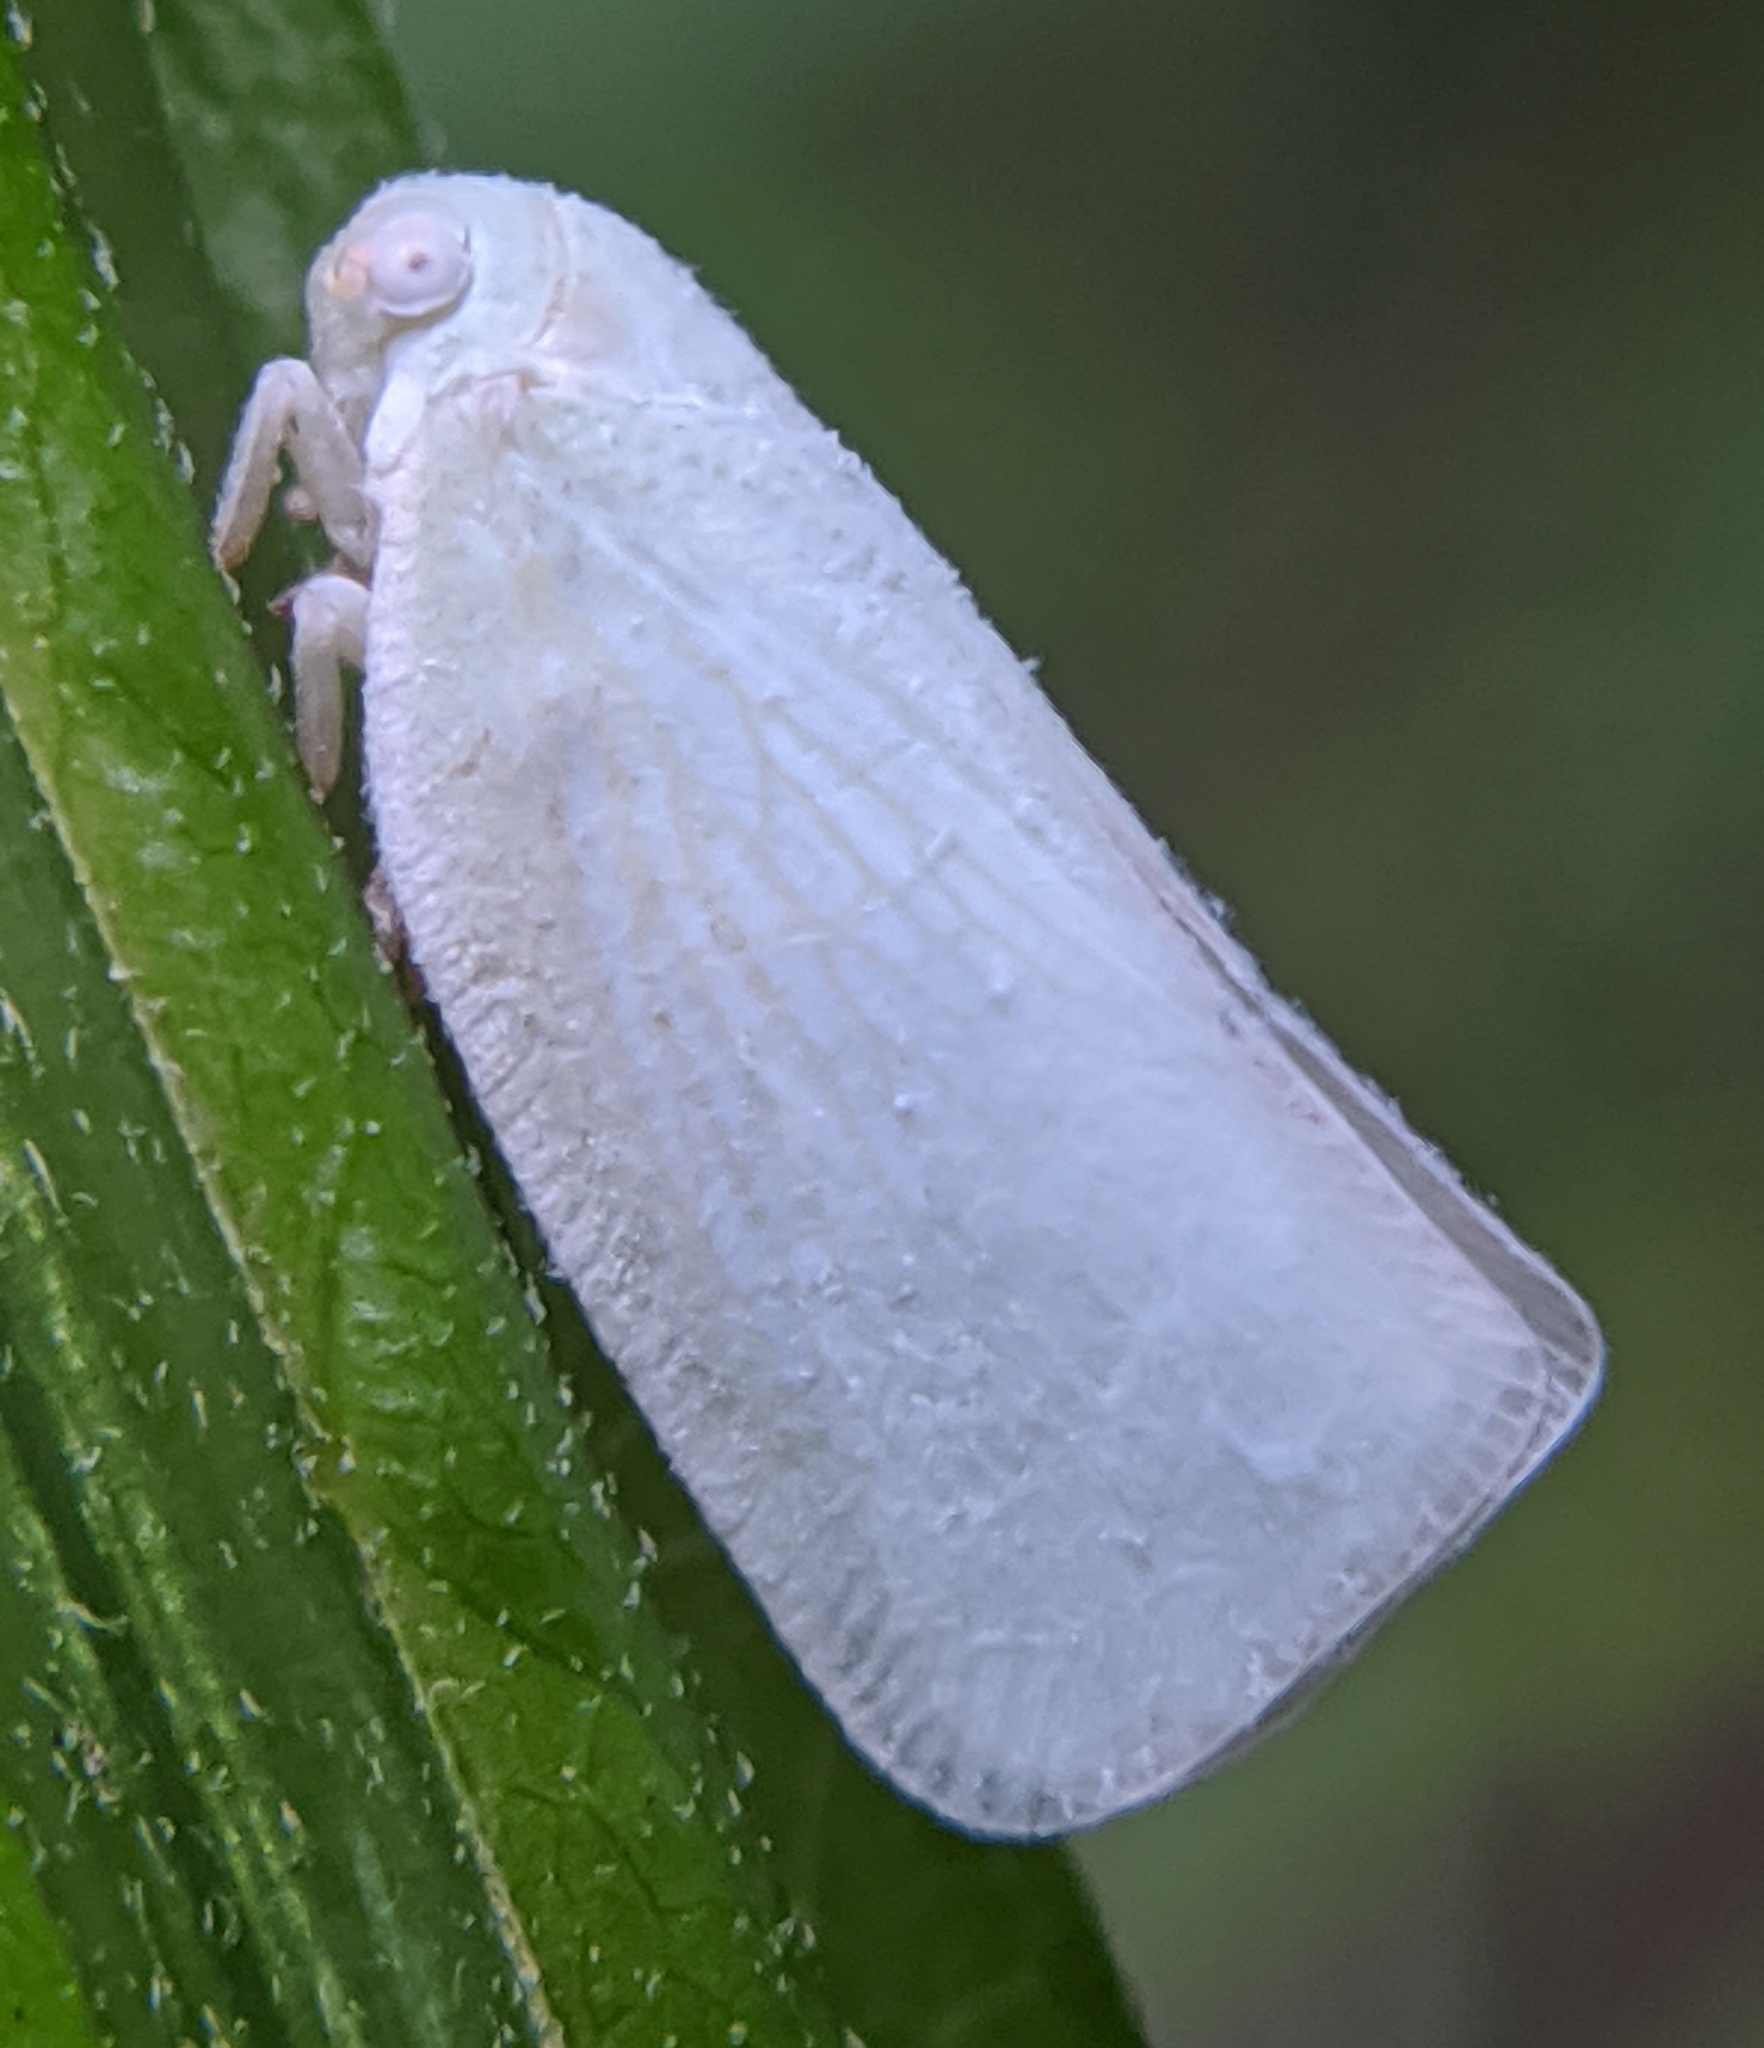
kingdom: Animalia
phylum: Arthropoda
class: Insecta
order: Hemiptera
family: Flatidae
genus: Flatormenis
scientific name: Flatormenis proxima
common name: Northern flatid planthopper
